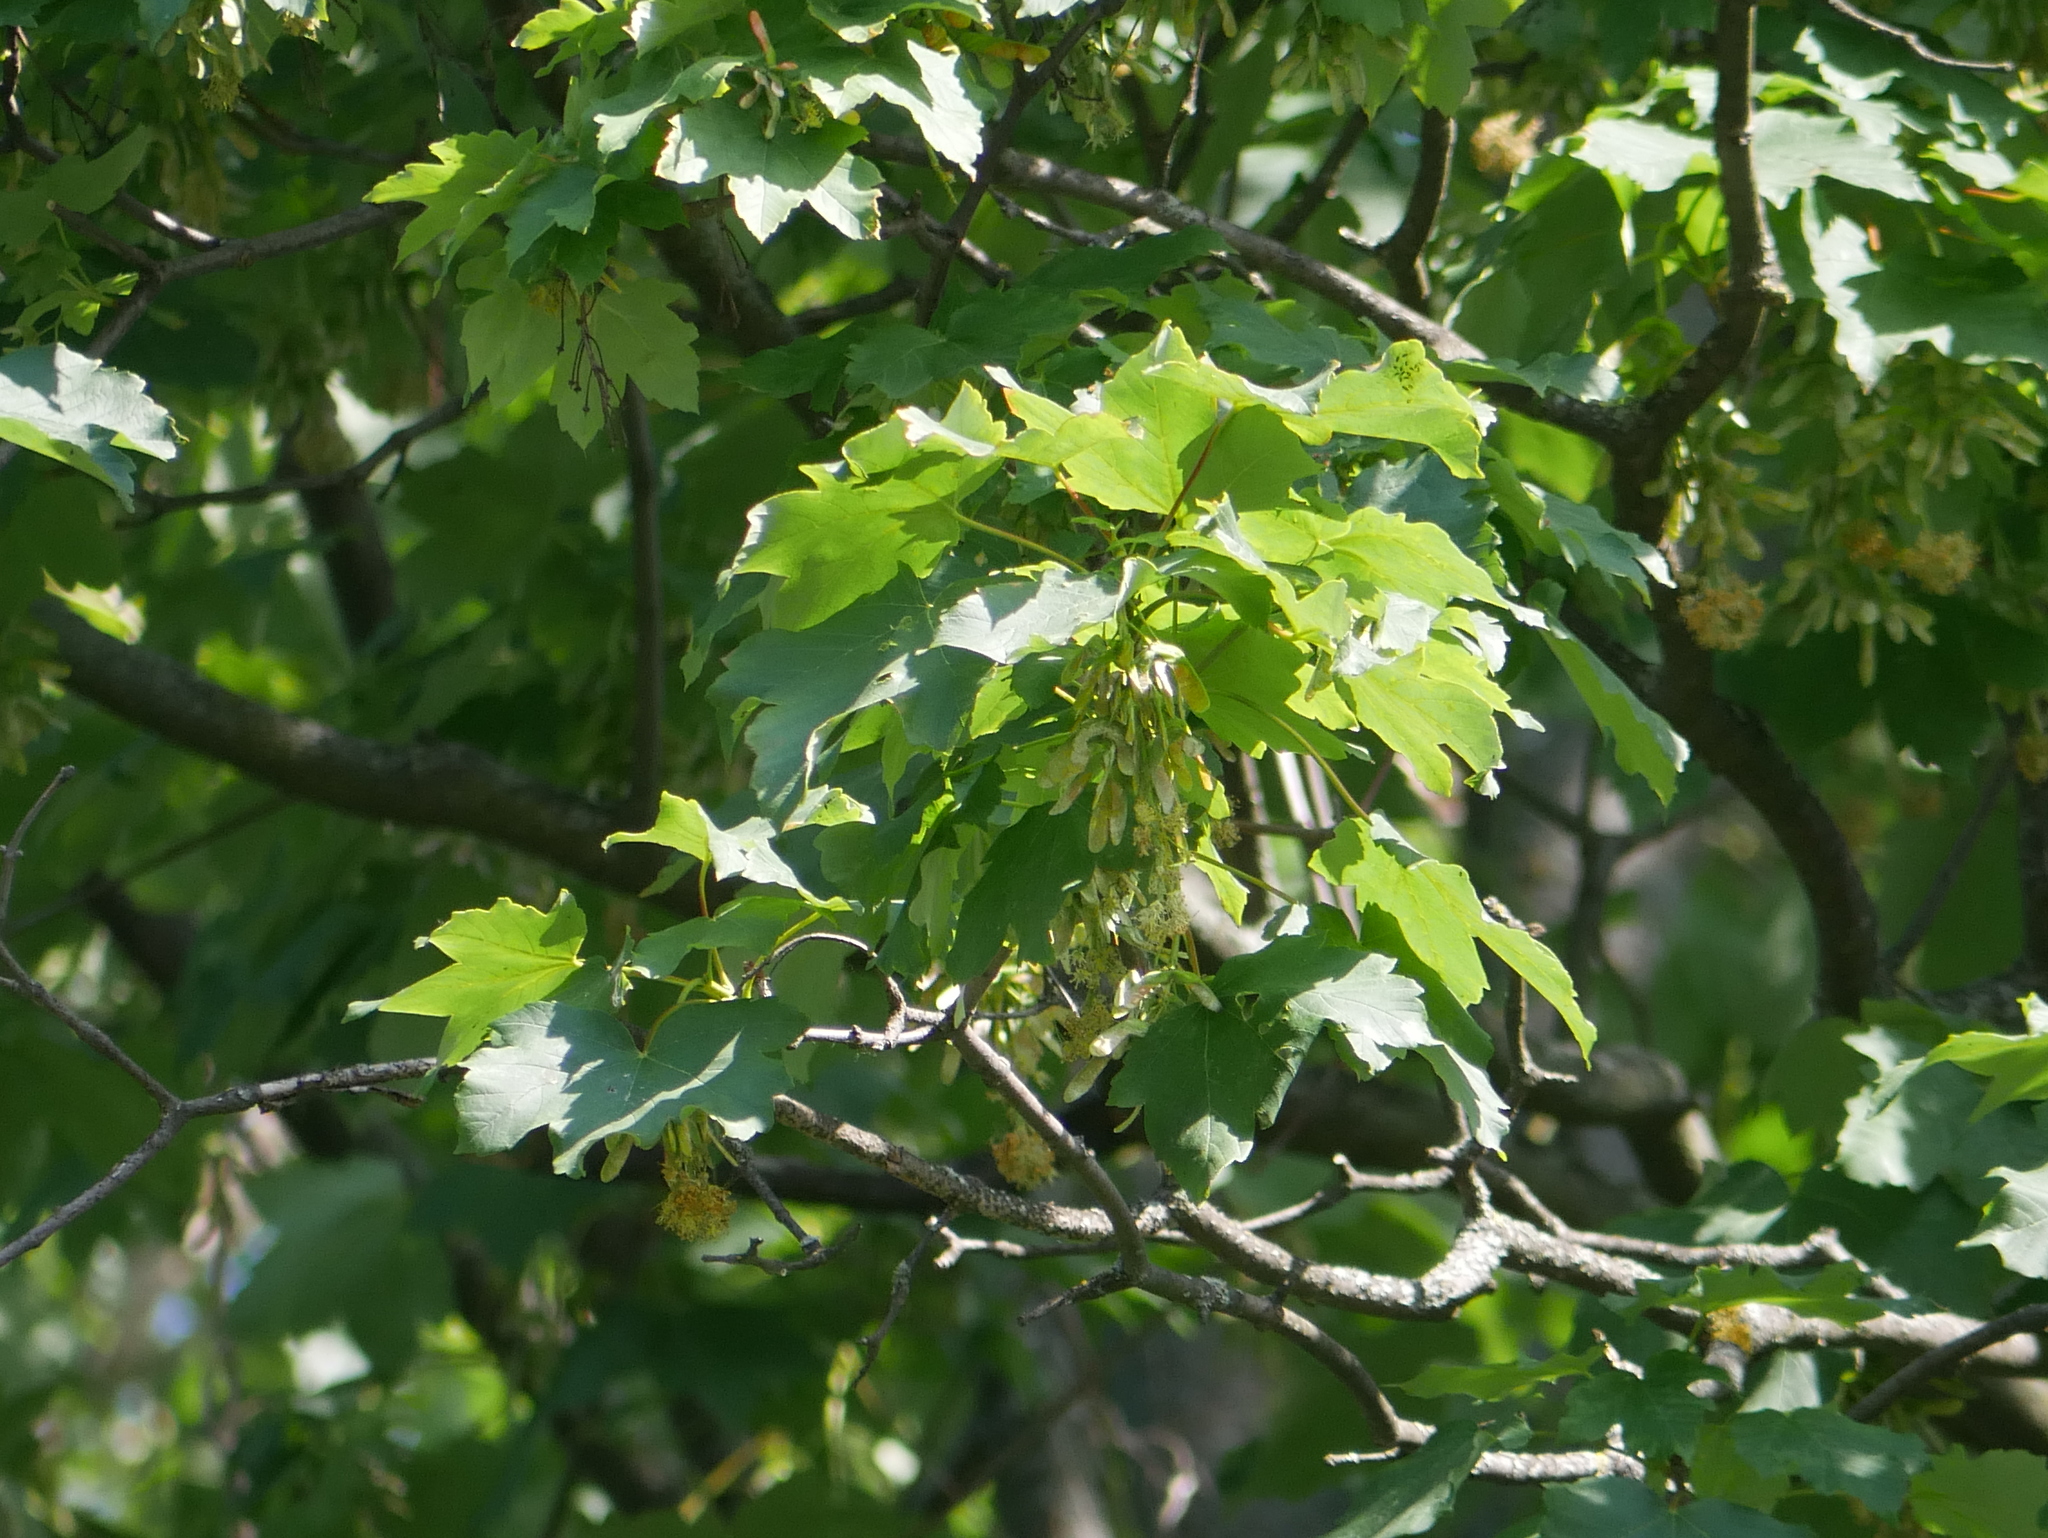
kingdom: Plantae
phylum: Tracheophyta
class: Magnoliopsida
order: Sapindales
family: Sapindaceae
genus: Acer
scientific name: Acer pseudoplatanus
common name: Sycamore
